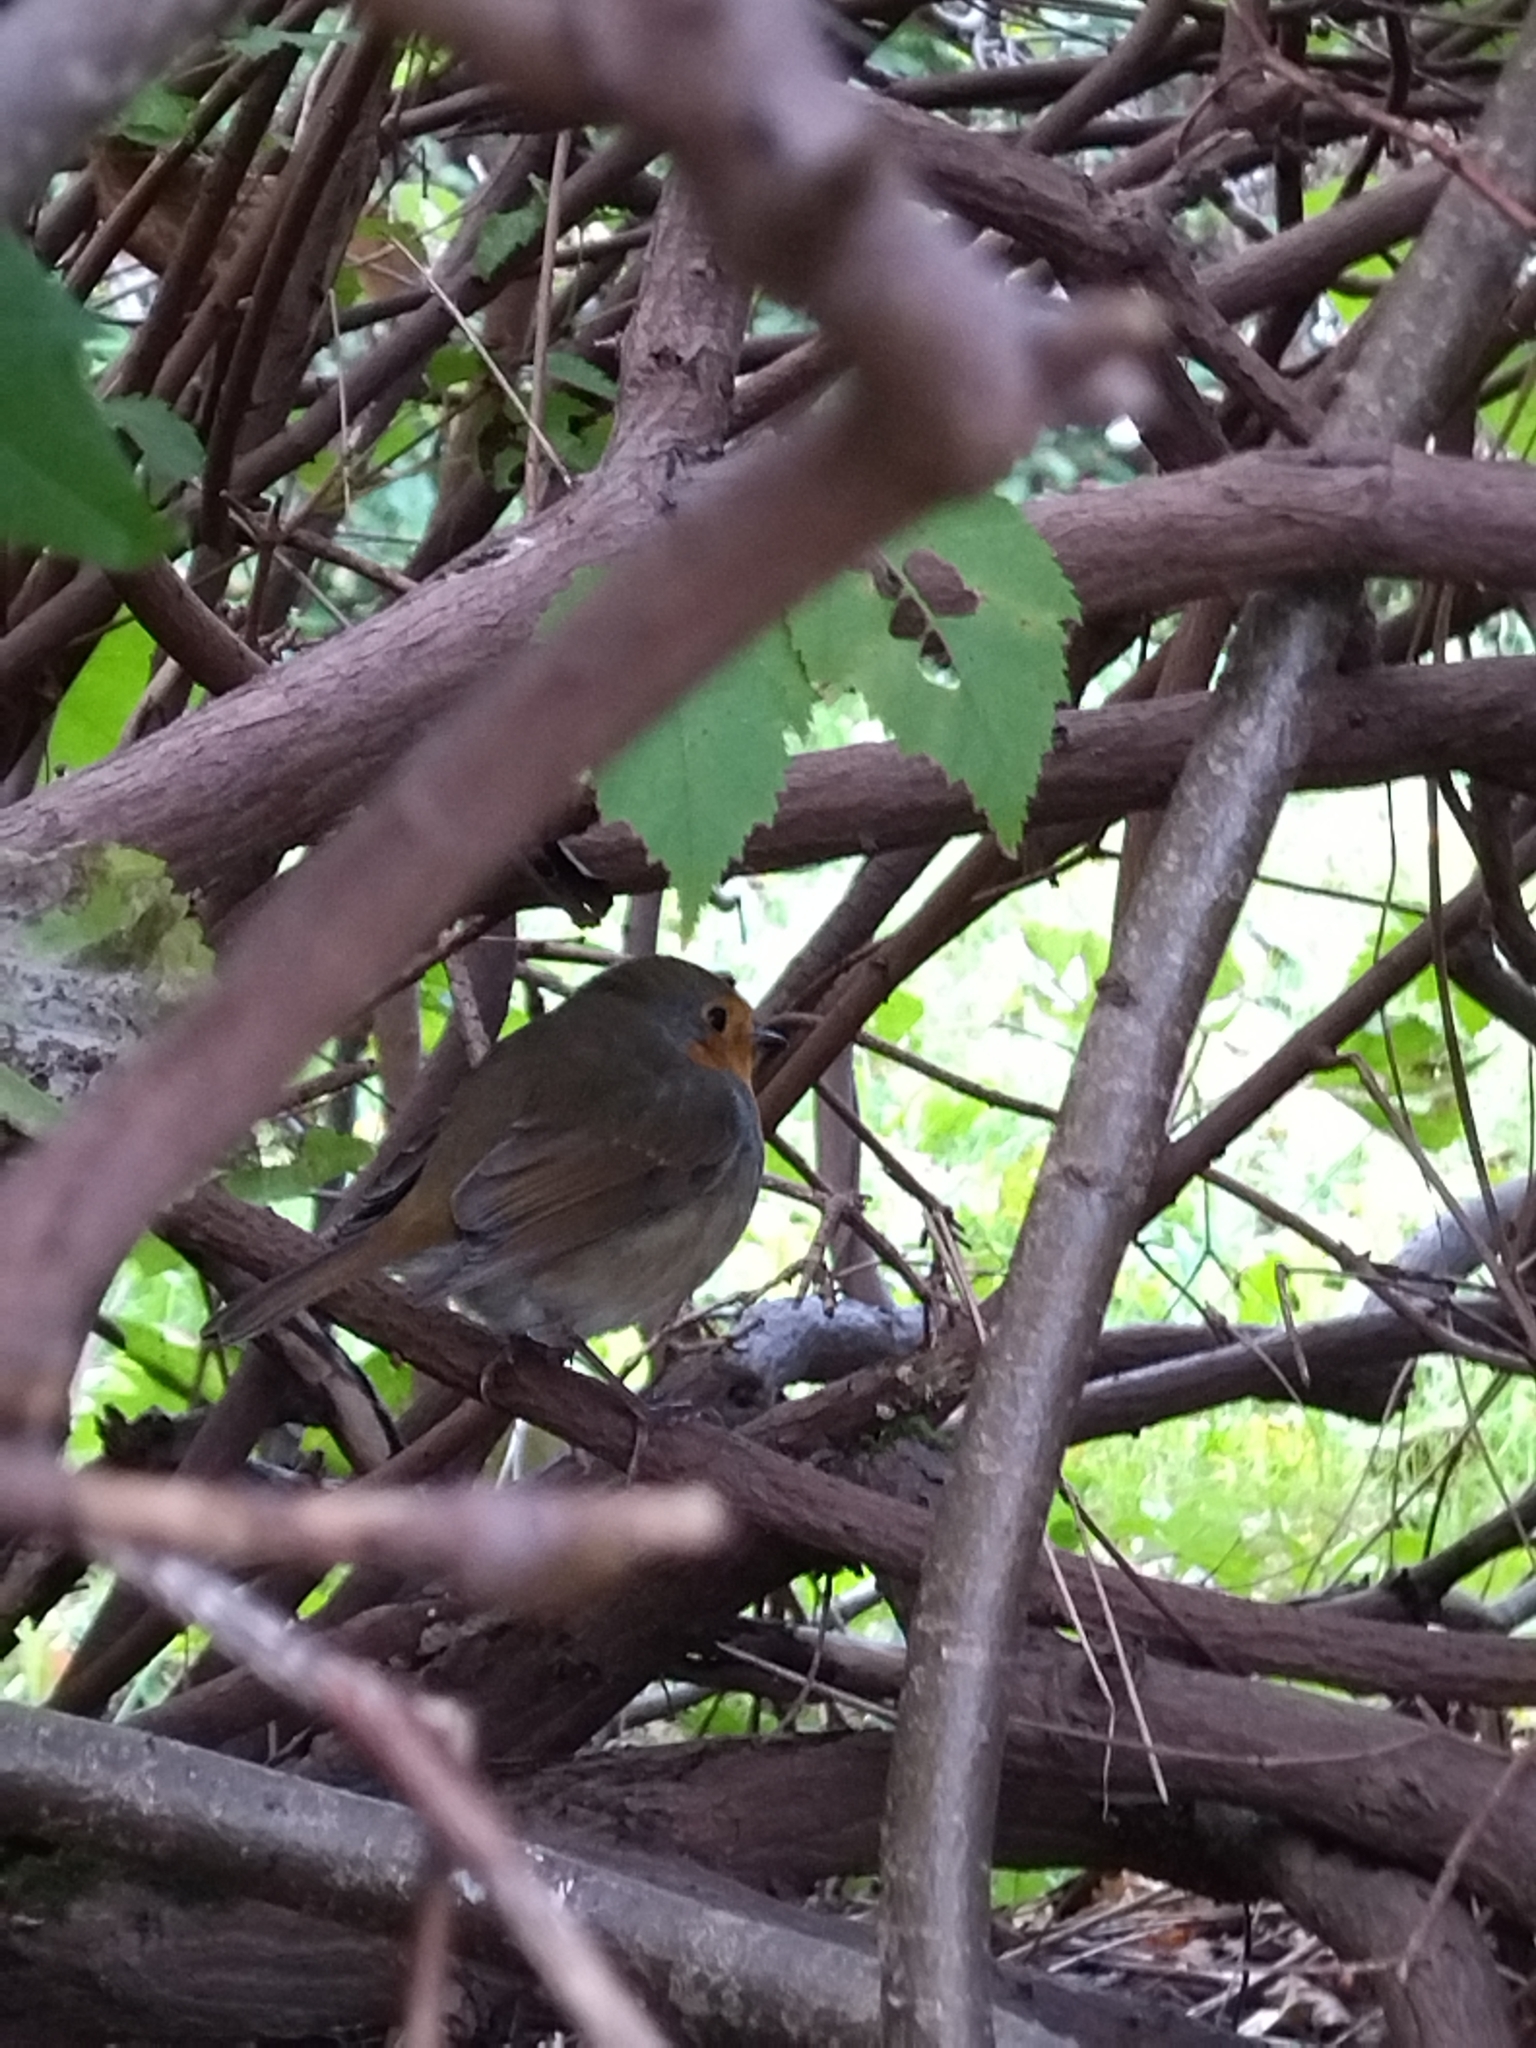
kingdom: Animalia
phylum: Chordata
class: Aves
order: Passeriformes
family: Muscicapidae
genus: Erithacus
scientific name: Erithacus rubecula
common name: European robin
